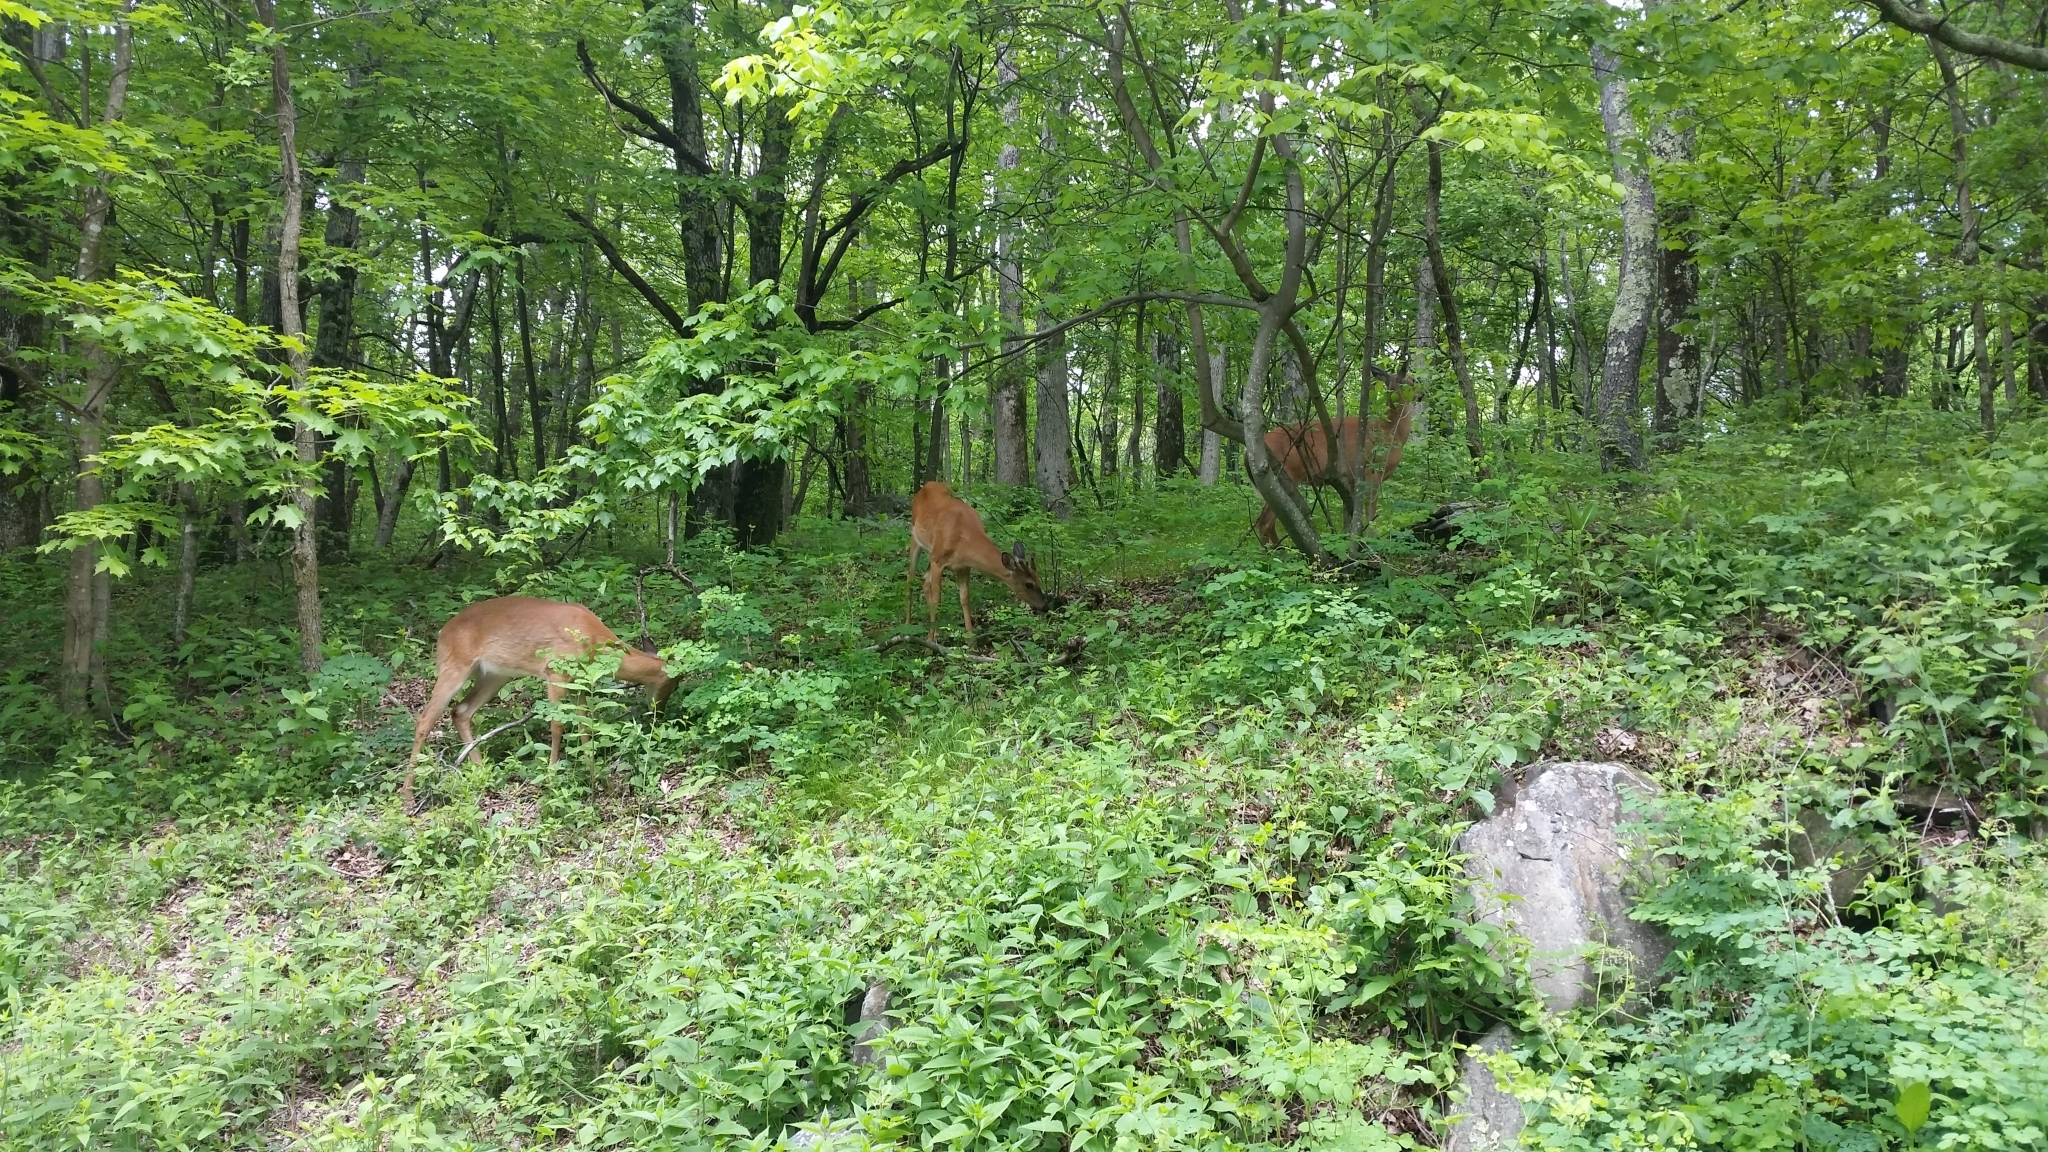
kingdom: Animalia
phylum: Chordata
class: Mammalia
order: Artiodactyla
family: Cervidae
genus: Odocoileus
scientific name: Odocoileus virginianus
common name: White-tailed deer
